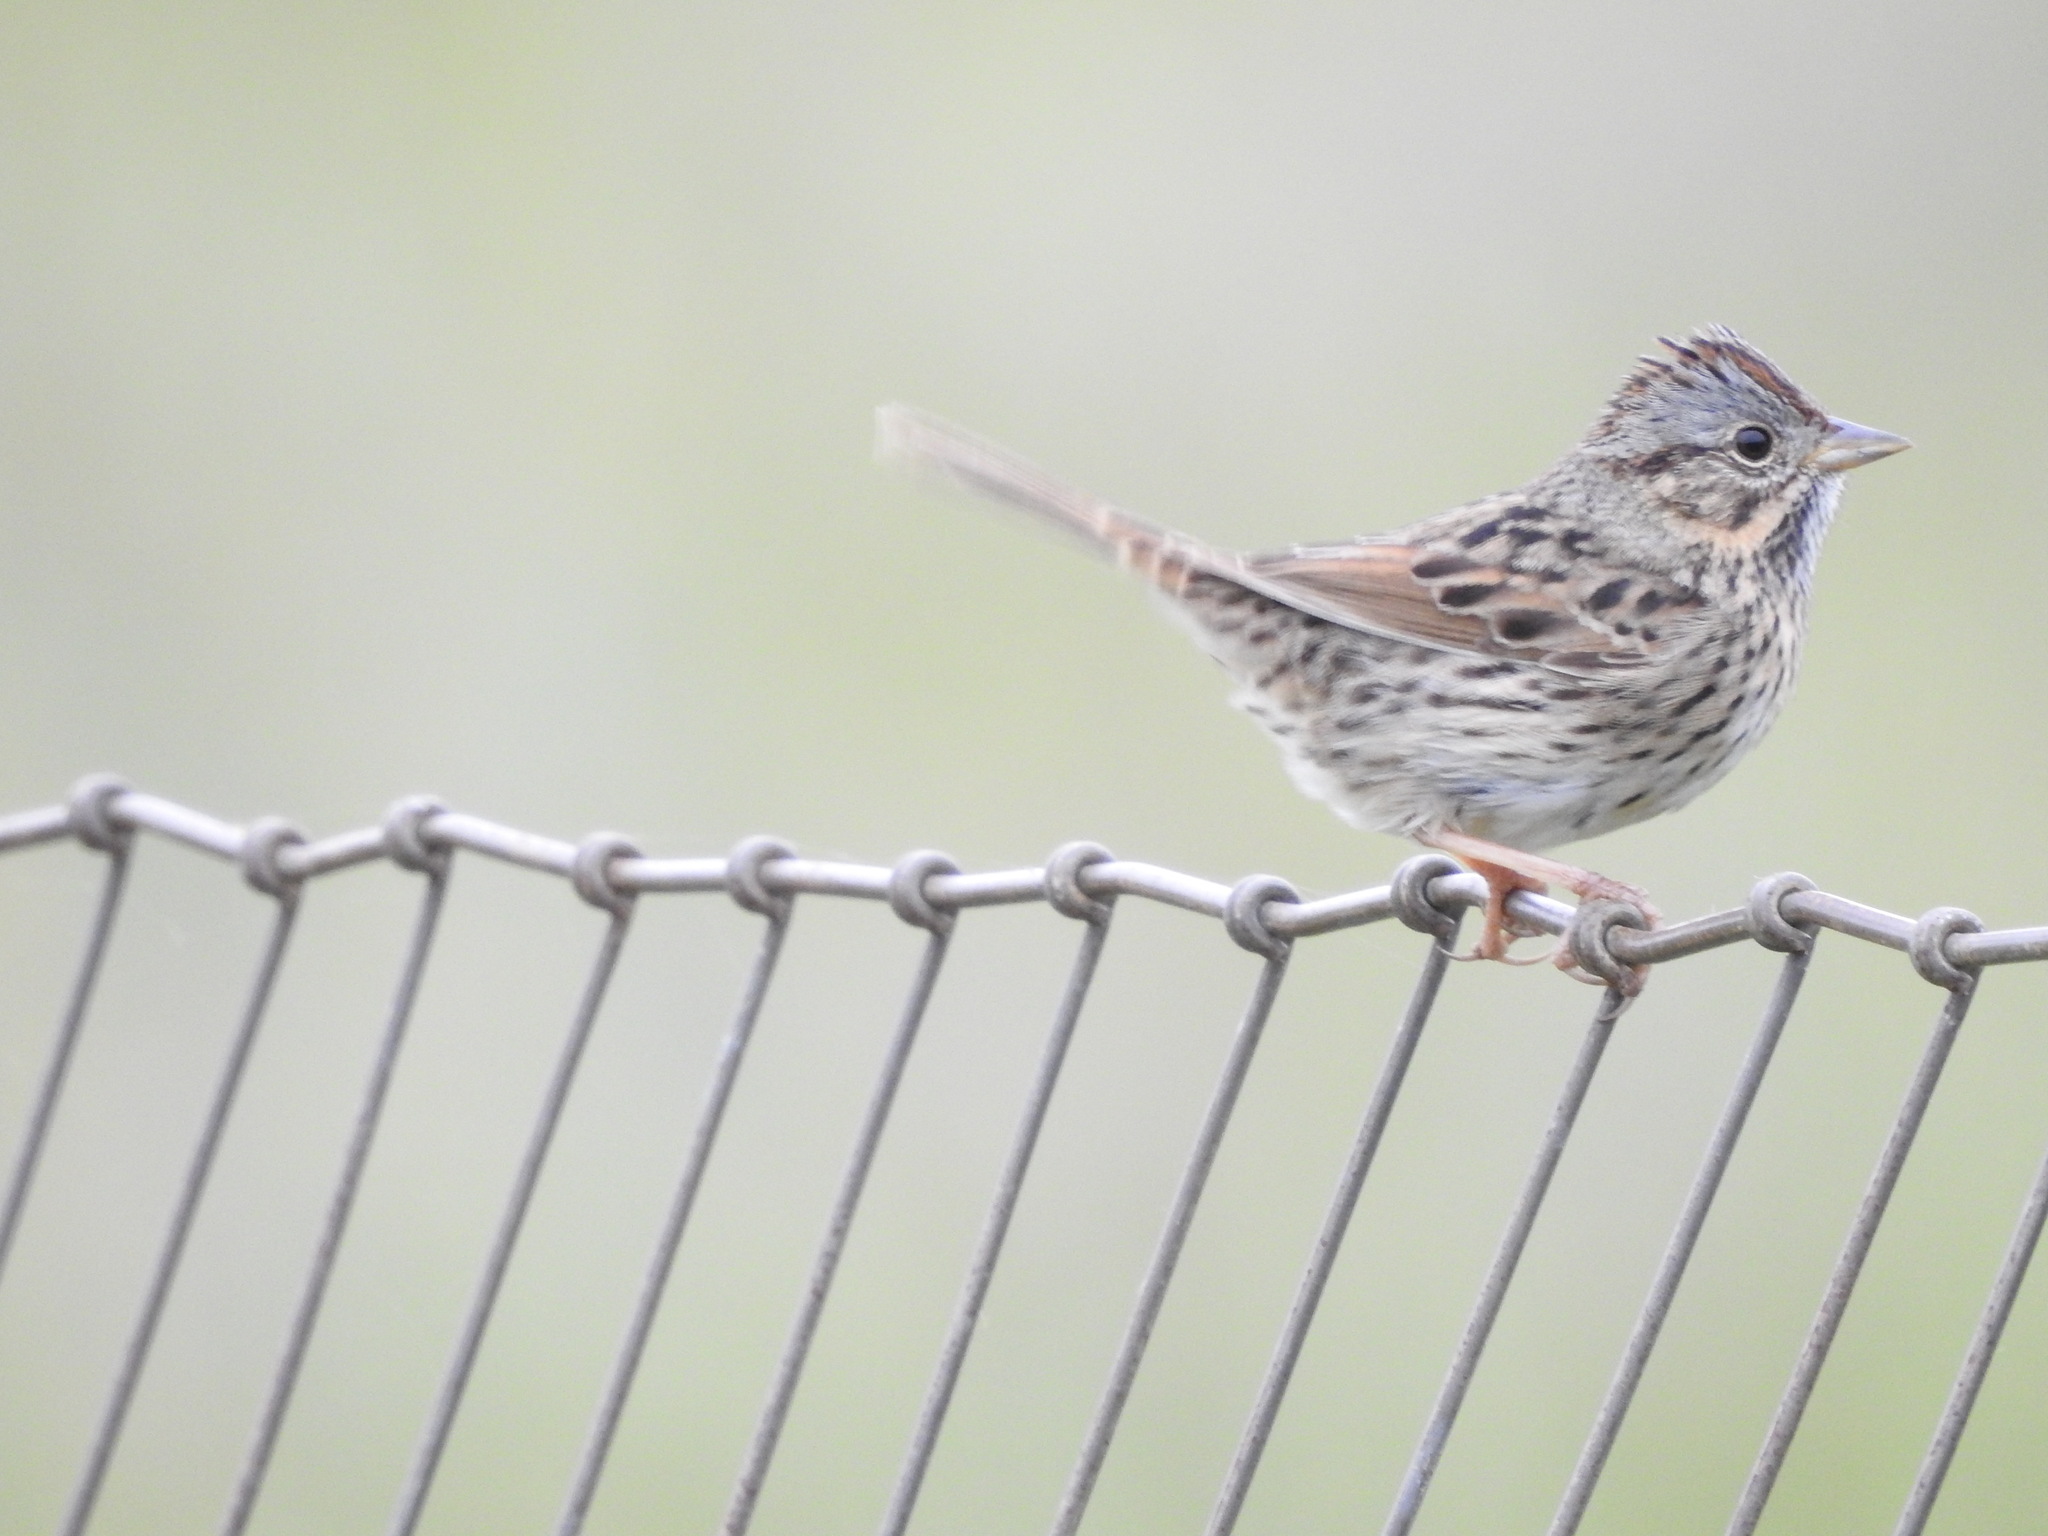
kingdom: Animalia
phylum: Chordata
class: Aves
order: Passeriformes
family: Passerellidae
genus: Melospiza
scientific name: Melospiza lincolnii
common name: Lincoln's sparrow
